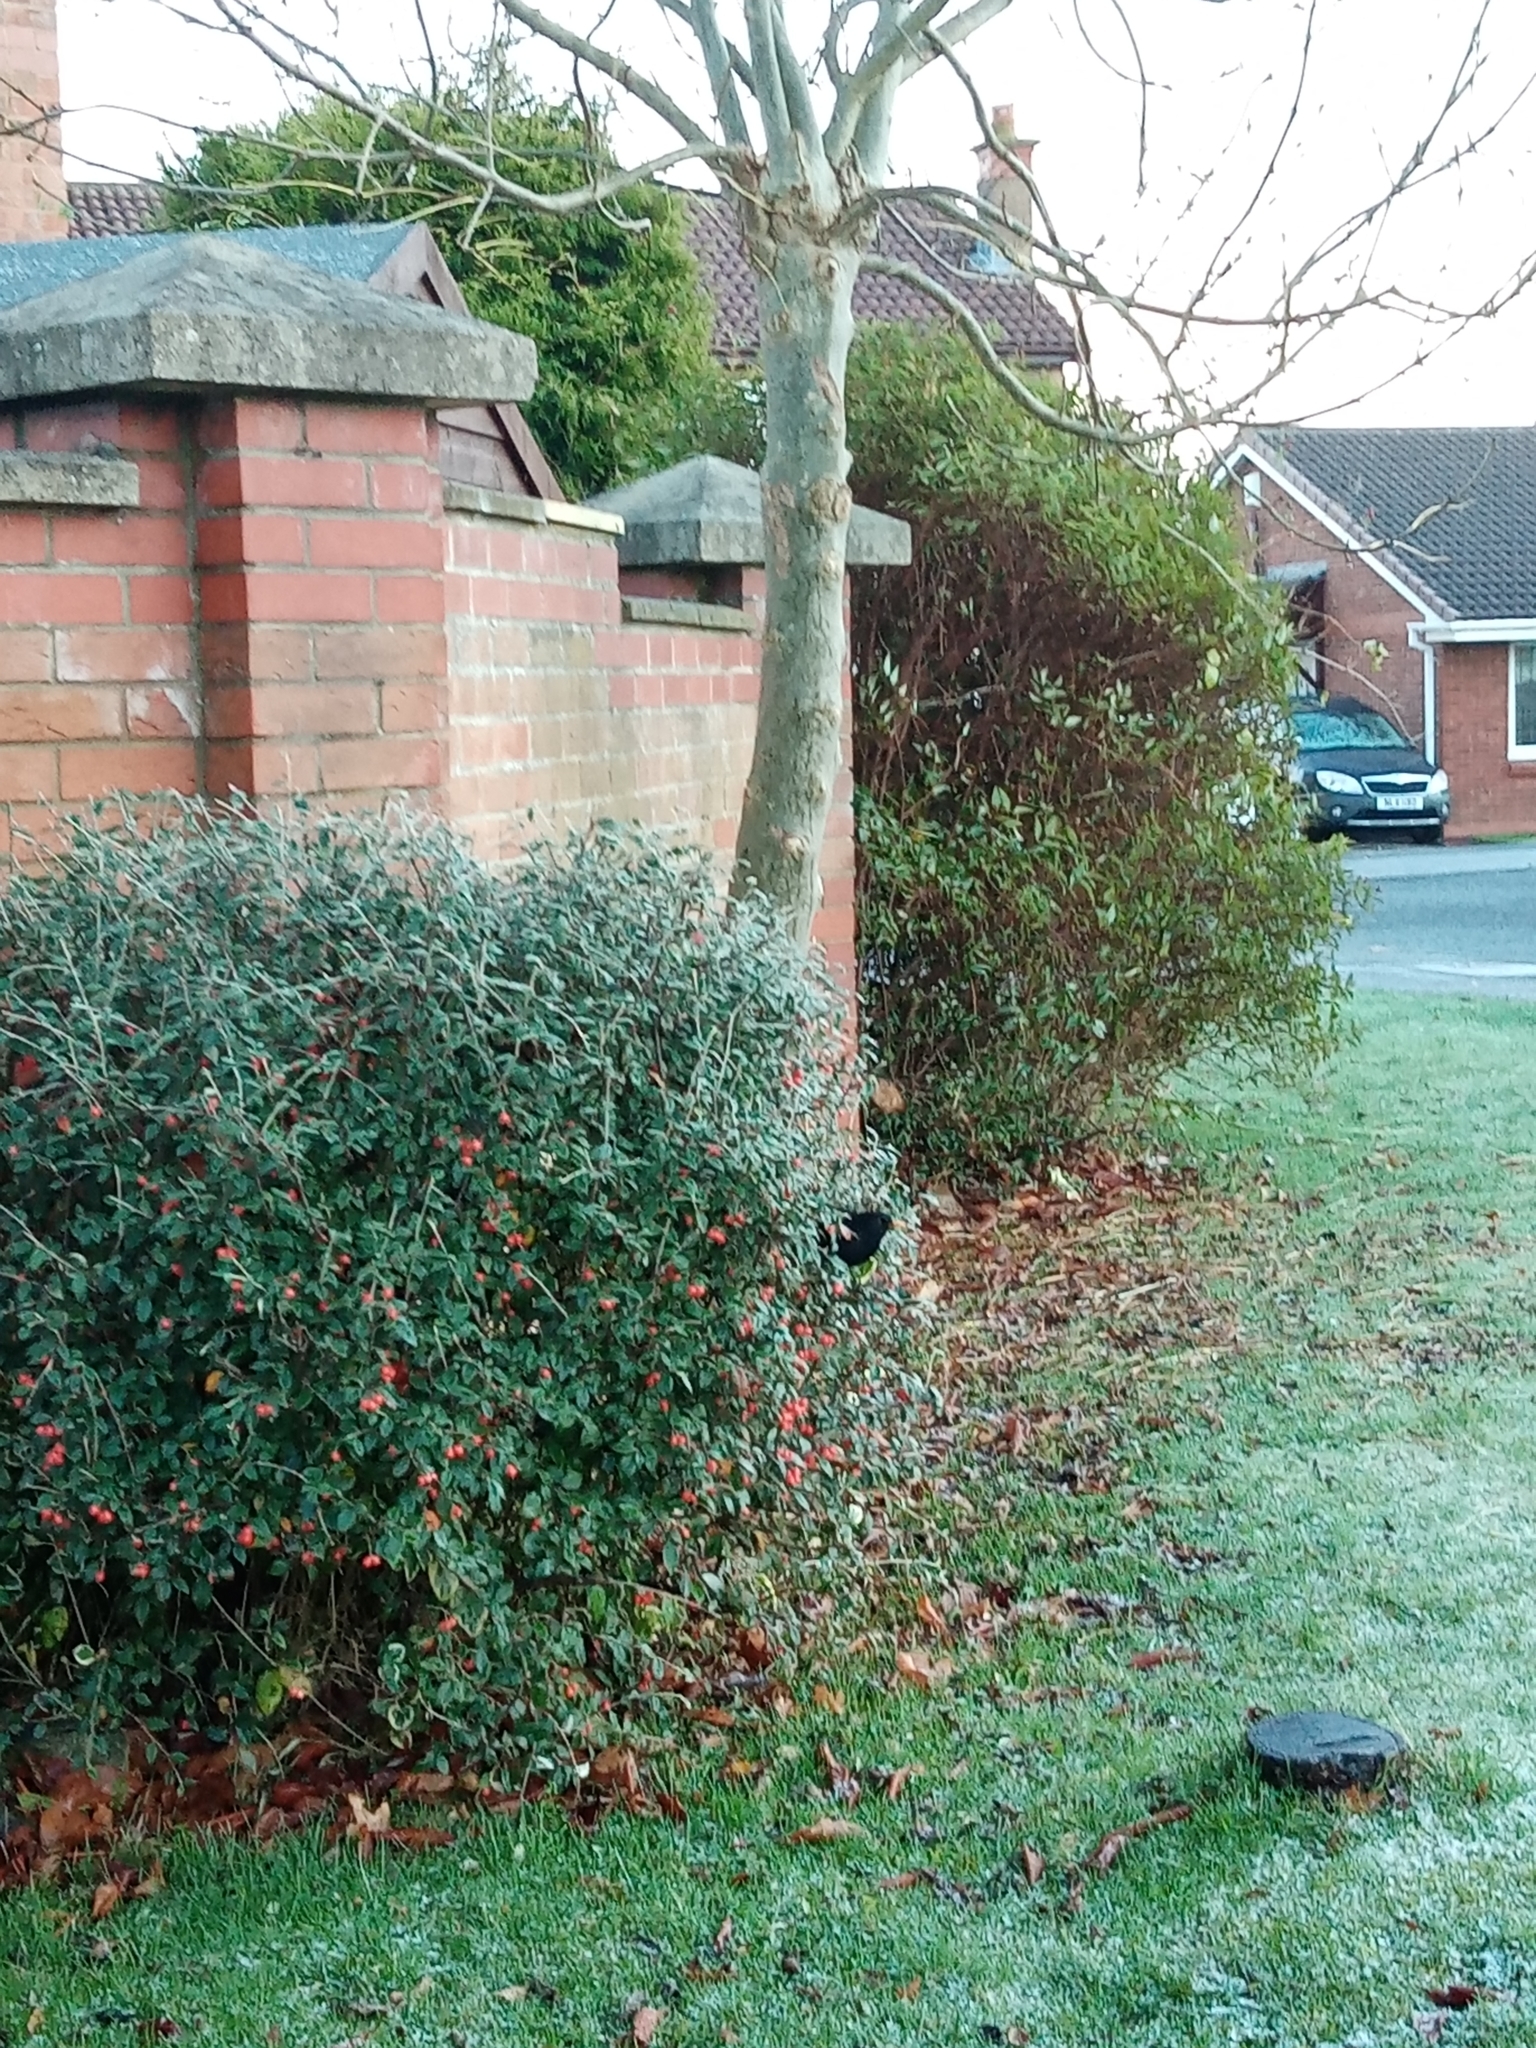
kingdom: Animalia
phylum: Chordata
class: Aves
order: Passeriformes
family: Turdidae
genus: Turdus
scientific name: Turdus merula
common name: Common blackbird
